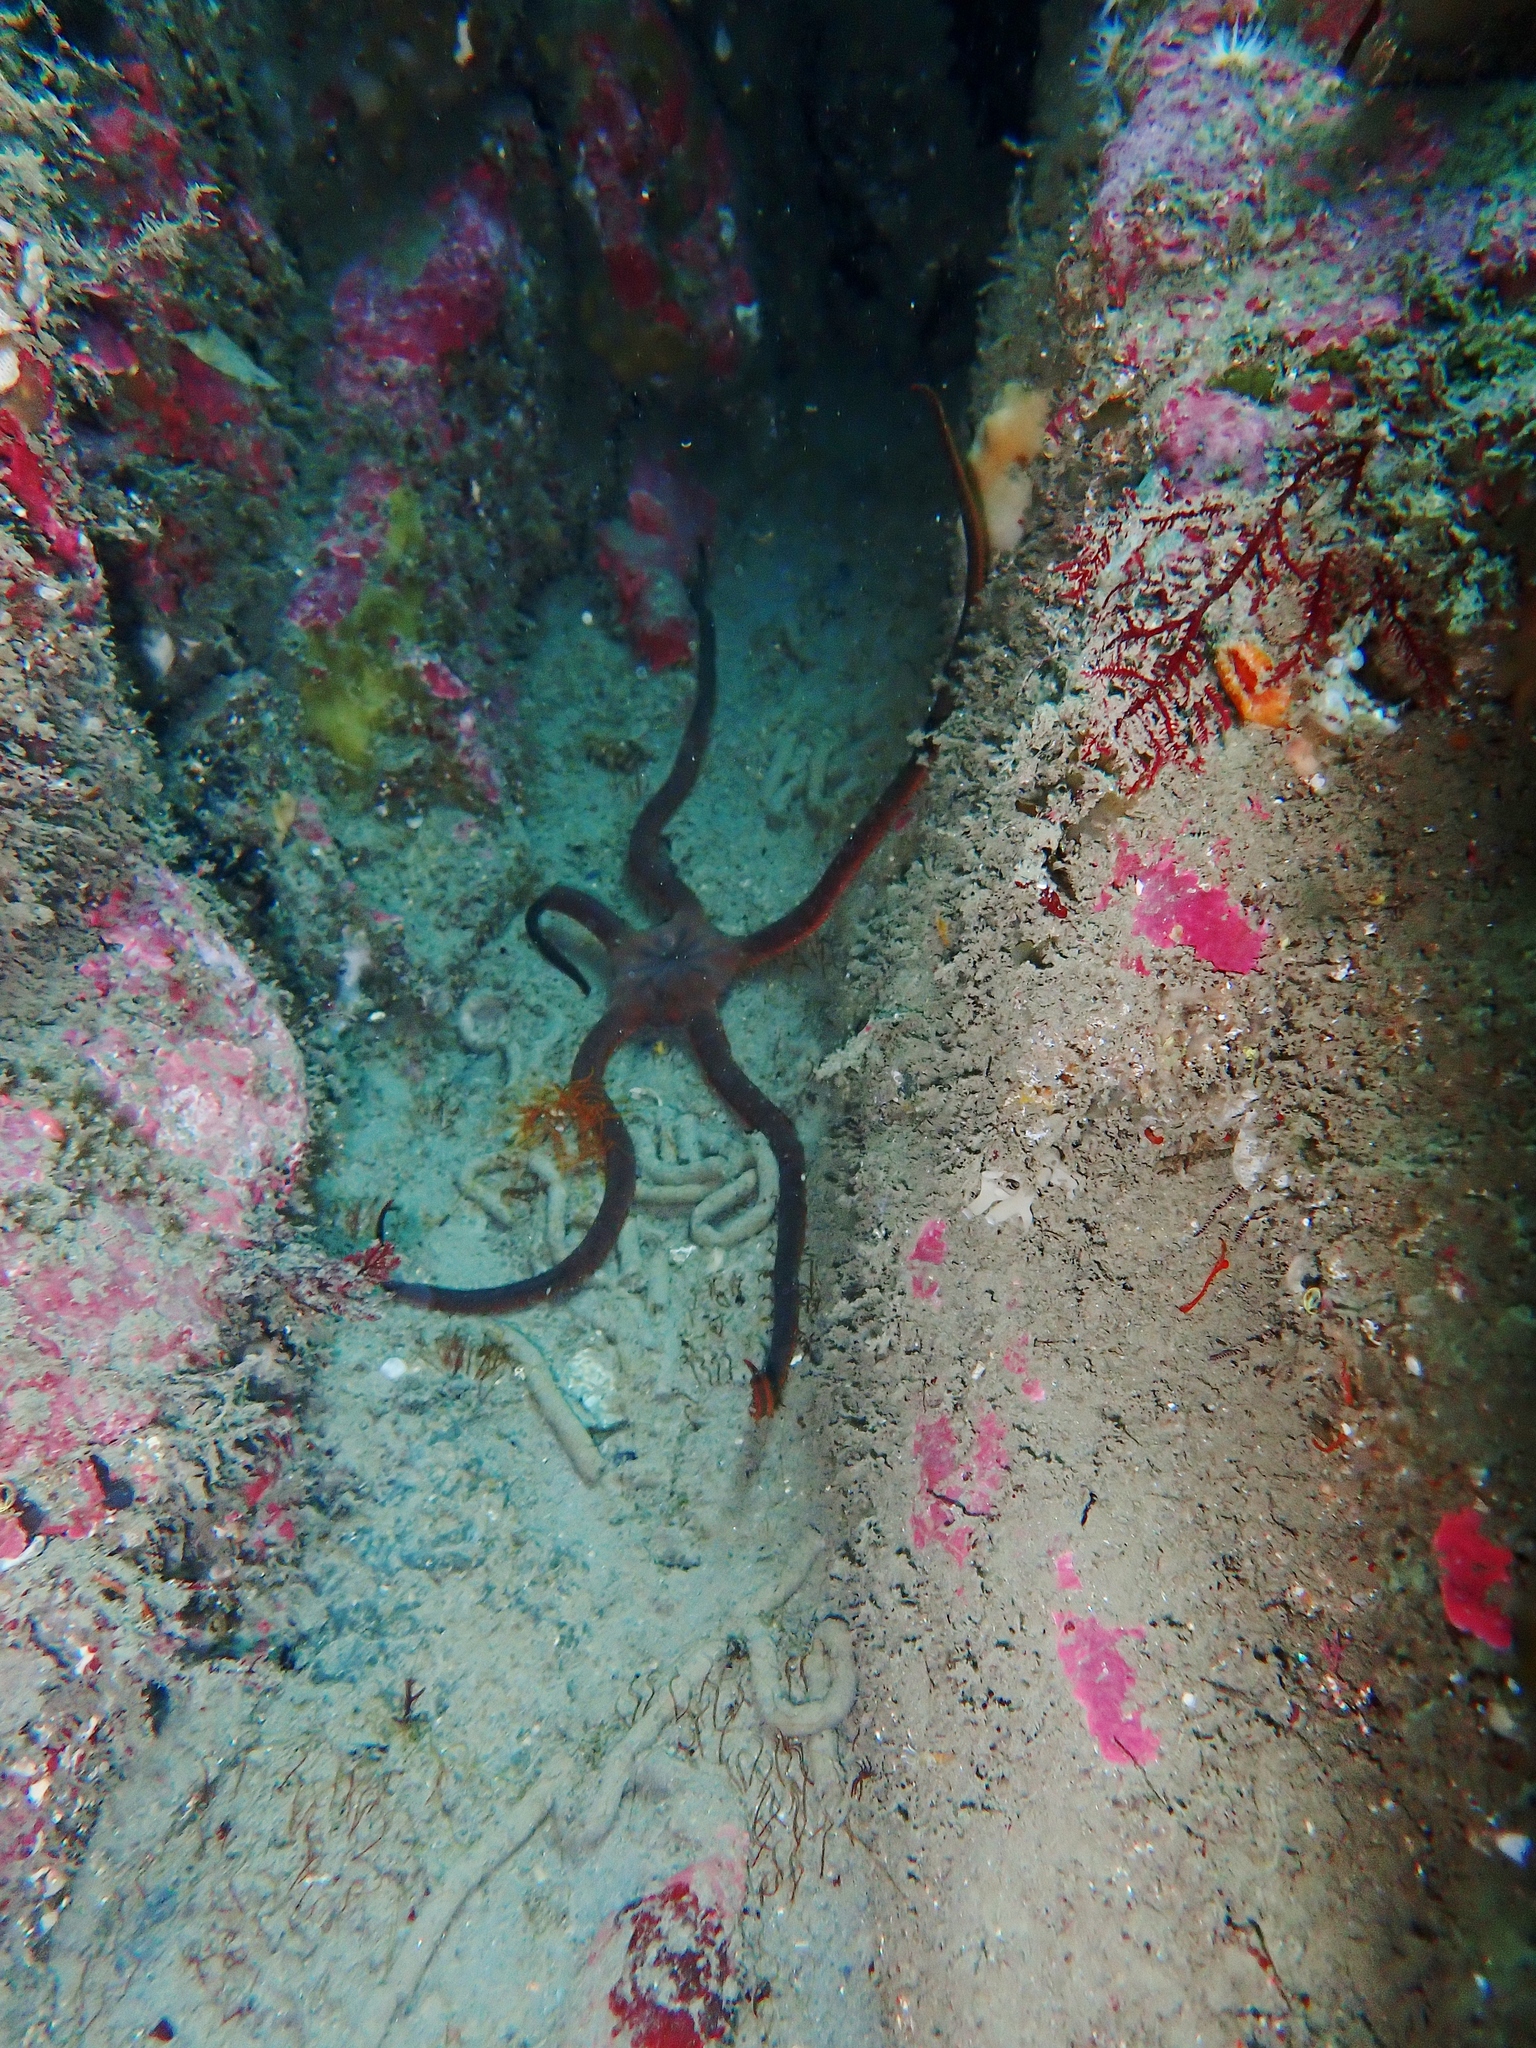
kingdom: Animalia
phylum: Echinodermata
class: Ophiuroidea
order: Ophiacanthida
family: Ophiodermatidae
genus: Ophiopsammus
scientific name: Ophiopsammus maculata
